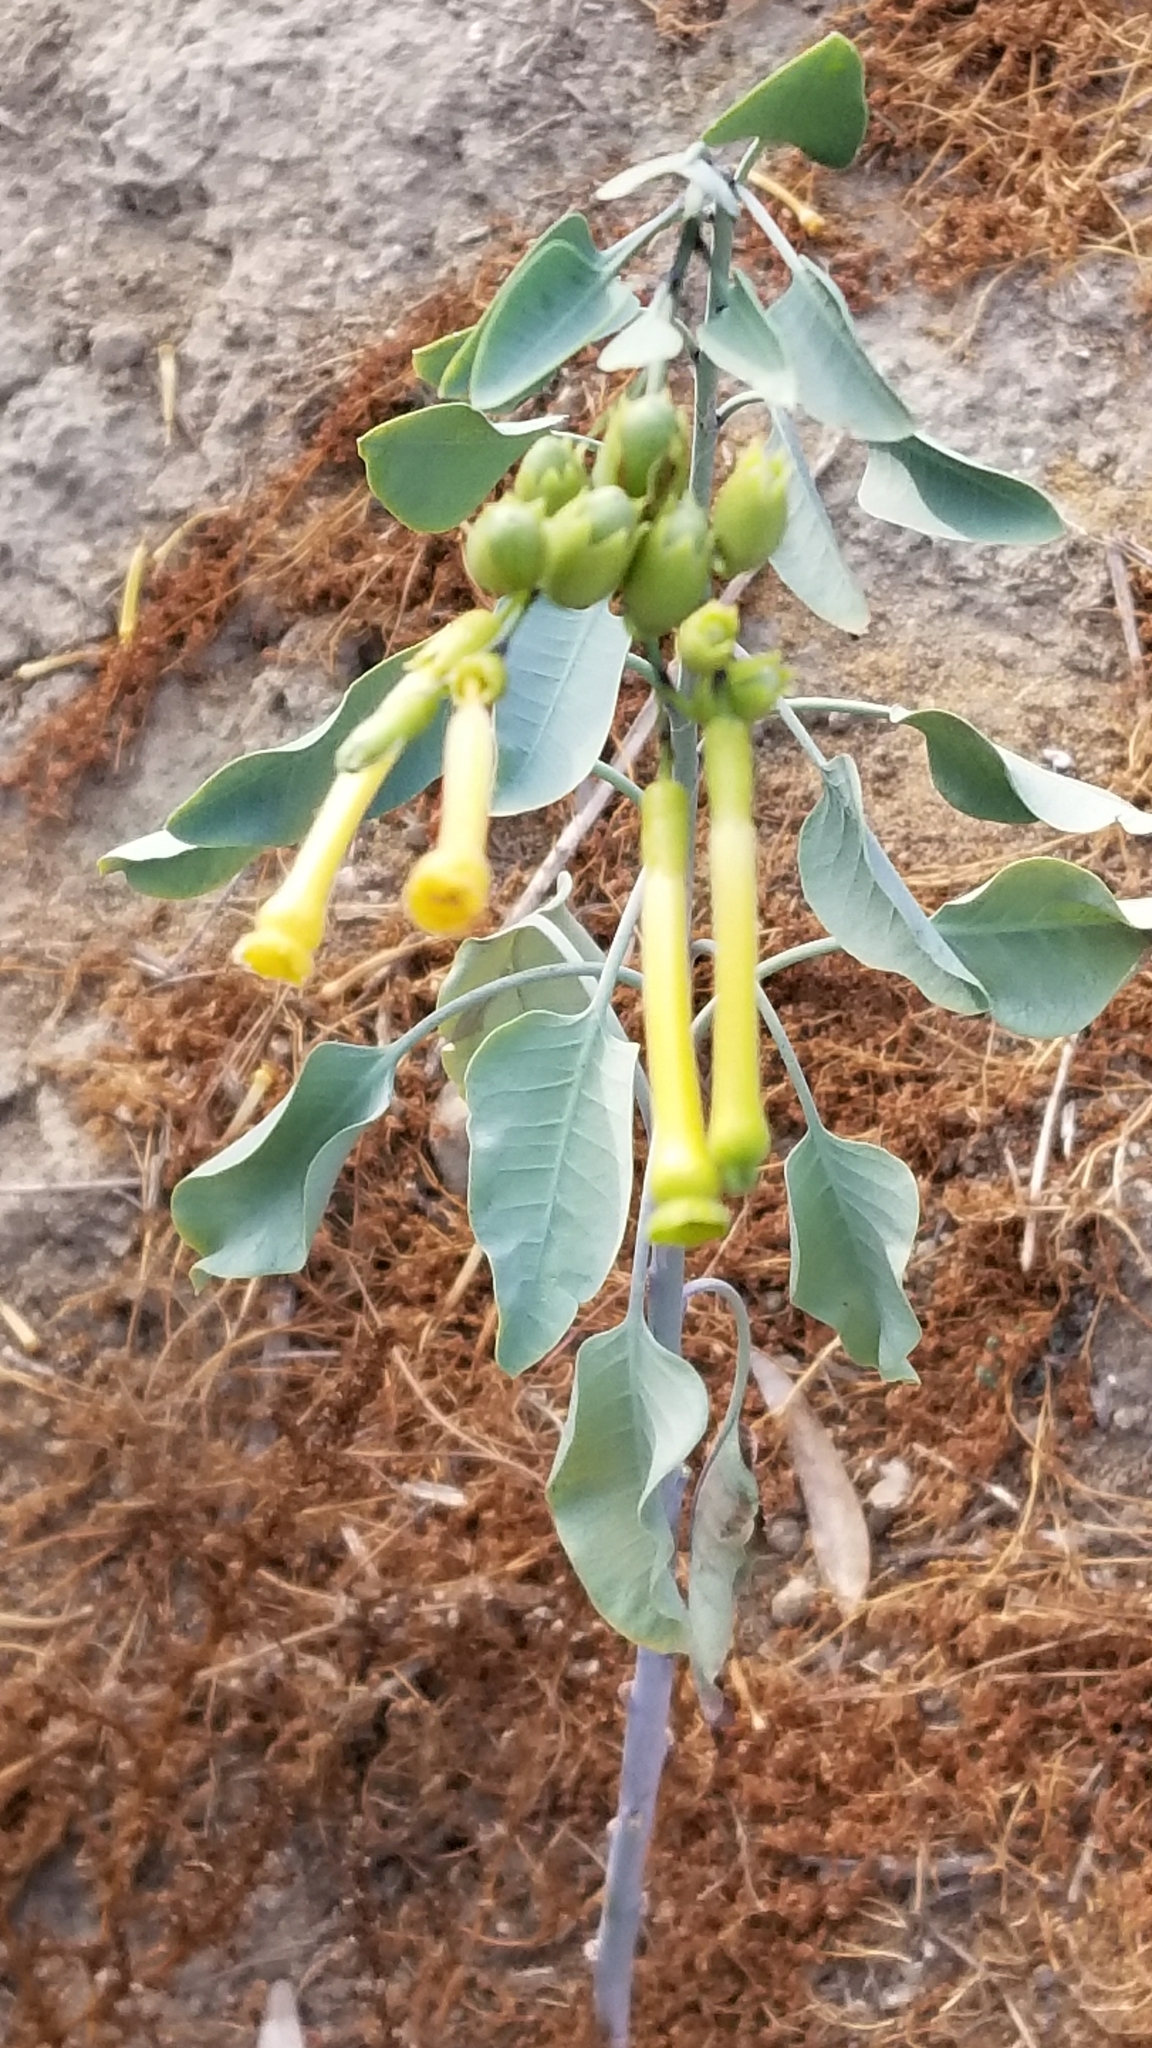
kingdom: Plantae
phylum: Tracheophyta
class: Magnoliopsida
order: Solanales
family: Solanaceae
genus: Nicotiana
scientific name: Nicotiana glauca
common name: Tree tobacco
